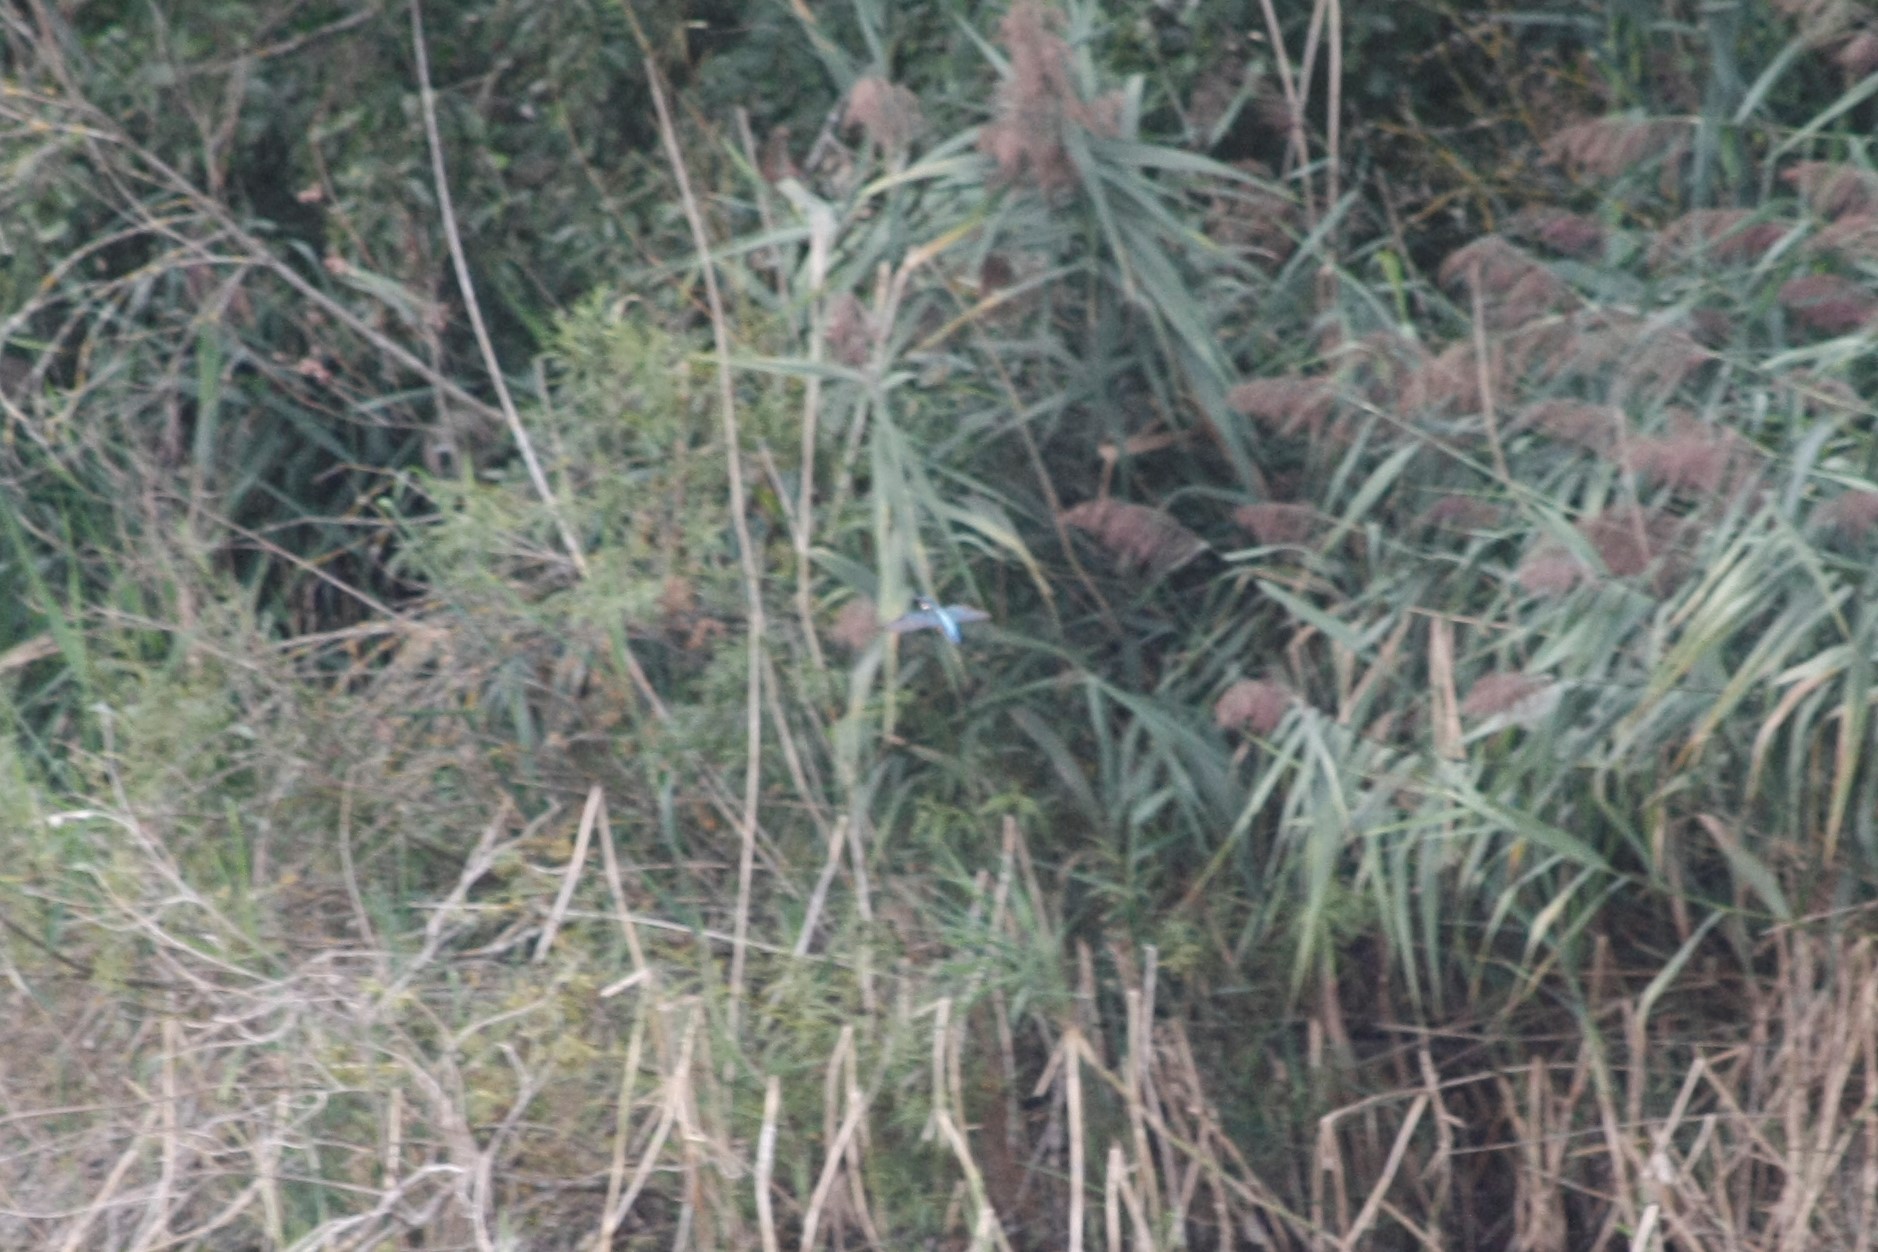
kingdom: Animalia
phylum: Chordata
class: Aves
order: Coraciiformes
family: Alcedinidae
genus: Alcedo
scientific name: Alcedo atthis
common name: Common kingfisher
